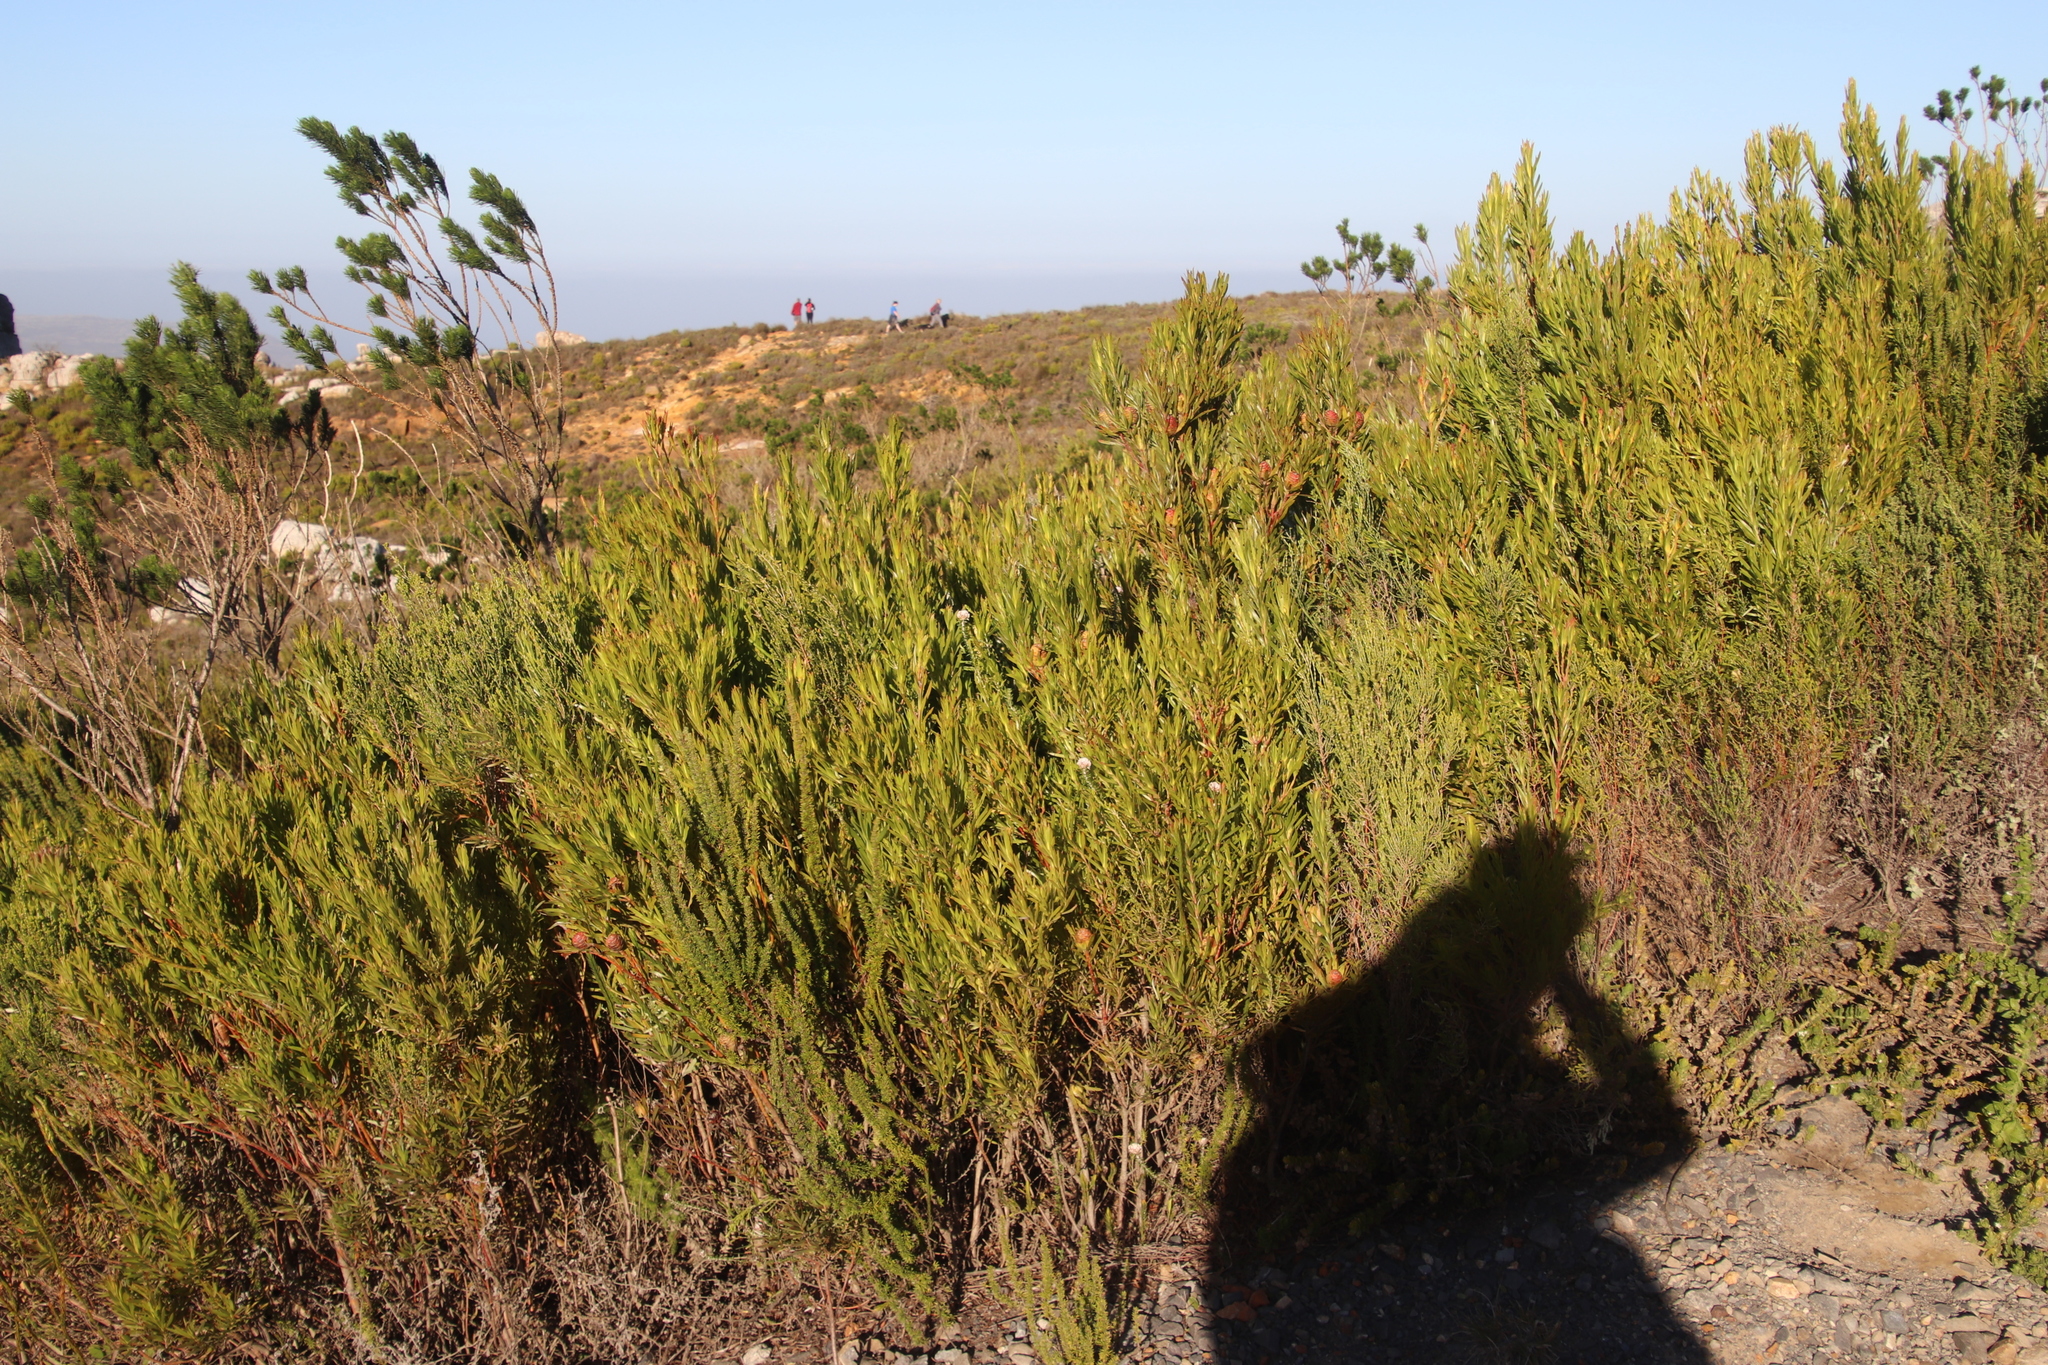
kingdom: Plantae
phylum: Tracheophyta
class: Magnoliopsida
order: Proteales
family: Proteaceae
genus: Leucadendron
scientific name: Leucadendron xanthoconus
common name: Sickle-leaf conebush
